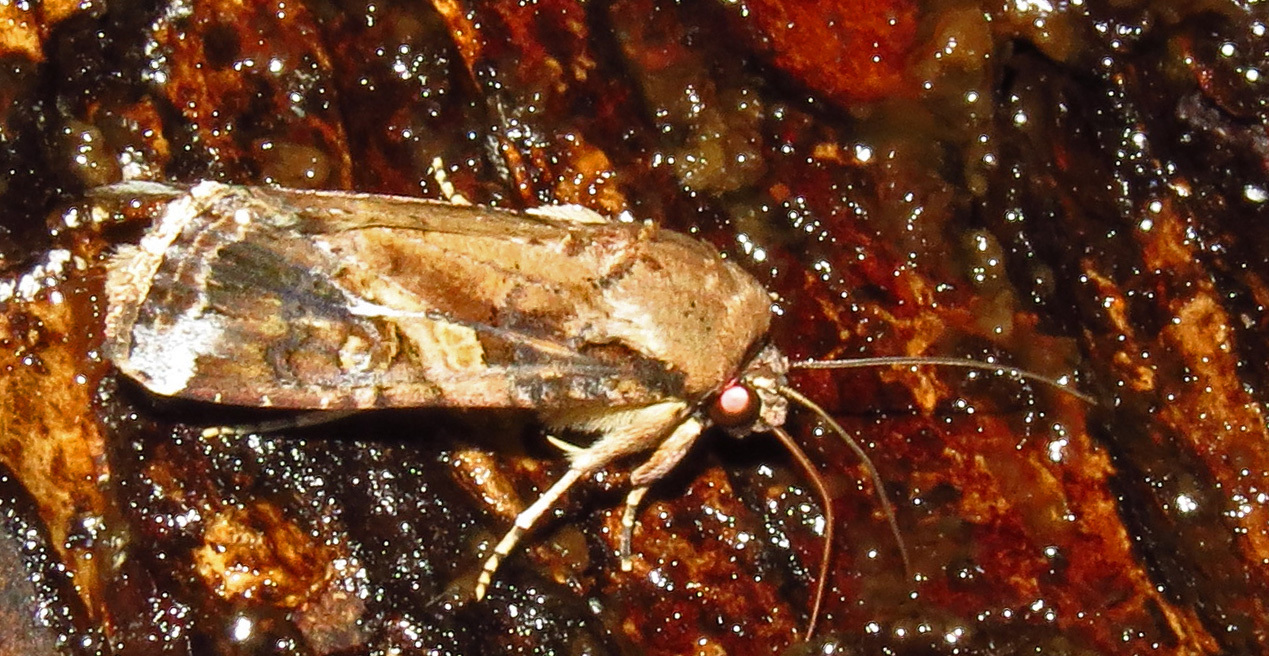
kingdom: Animalia
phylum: Arthropoda
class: Insecta
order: Lepidoptera
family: Noctuidae
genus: Spodoptera
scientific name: Spodoptera frugiperda
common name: Fall armyworm
